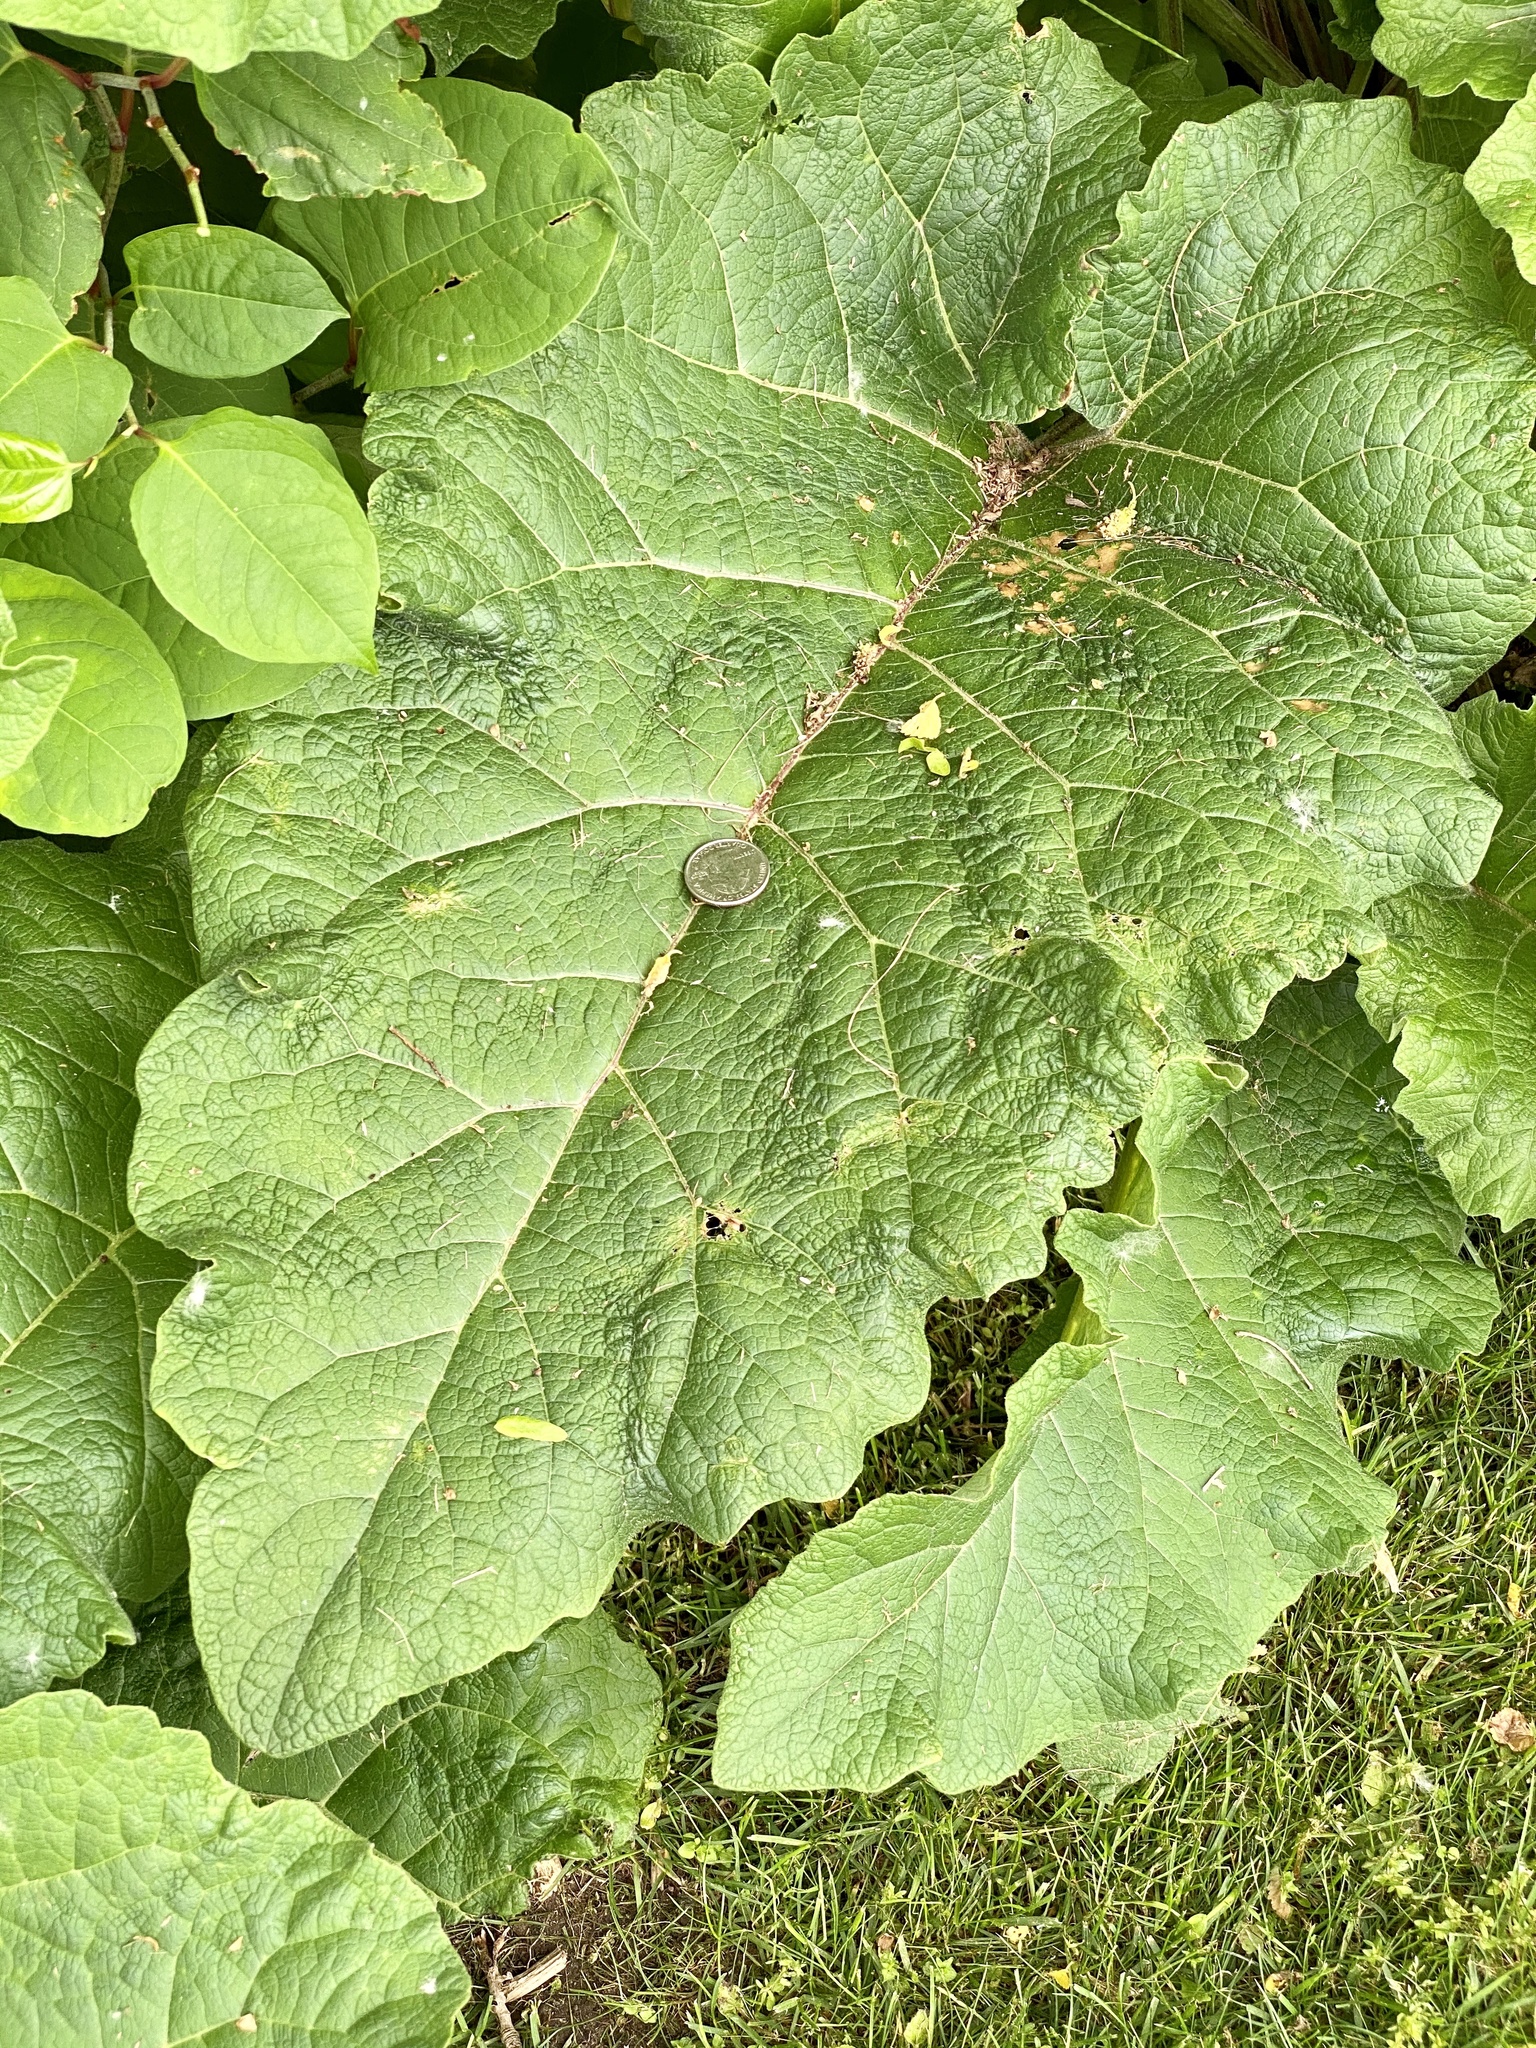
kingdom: Plantae
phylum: Tracheophyta
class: Magnoliopsida
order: Asterales
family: Asteraceae
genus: Arctium
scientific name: Arctium minus
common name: Lesser burdock
